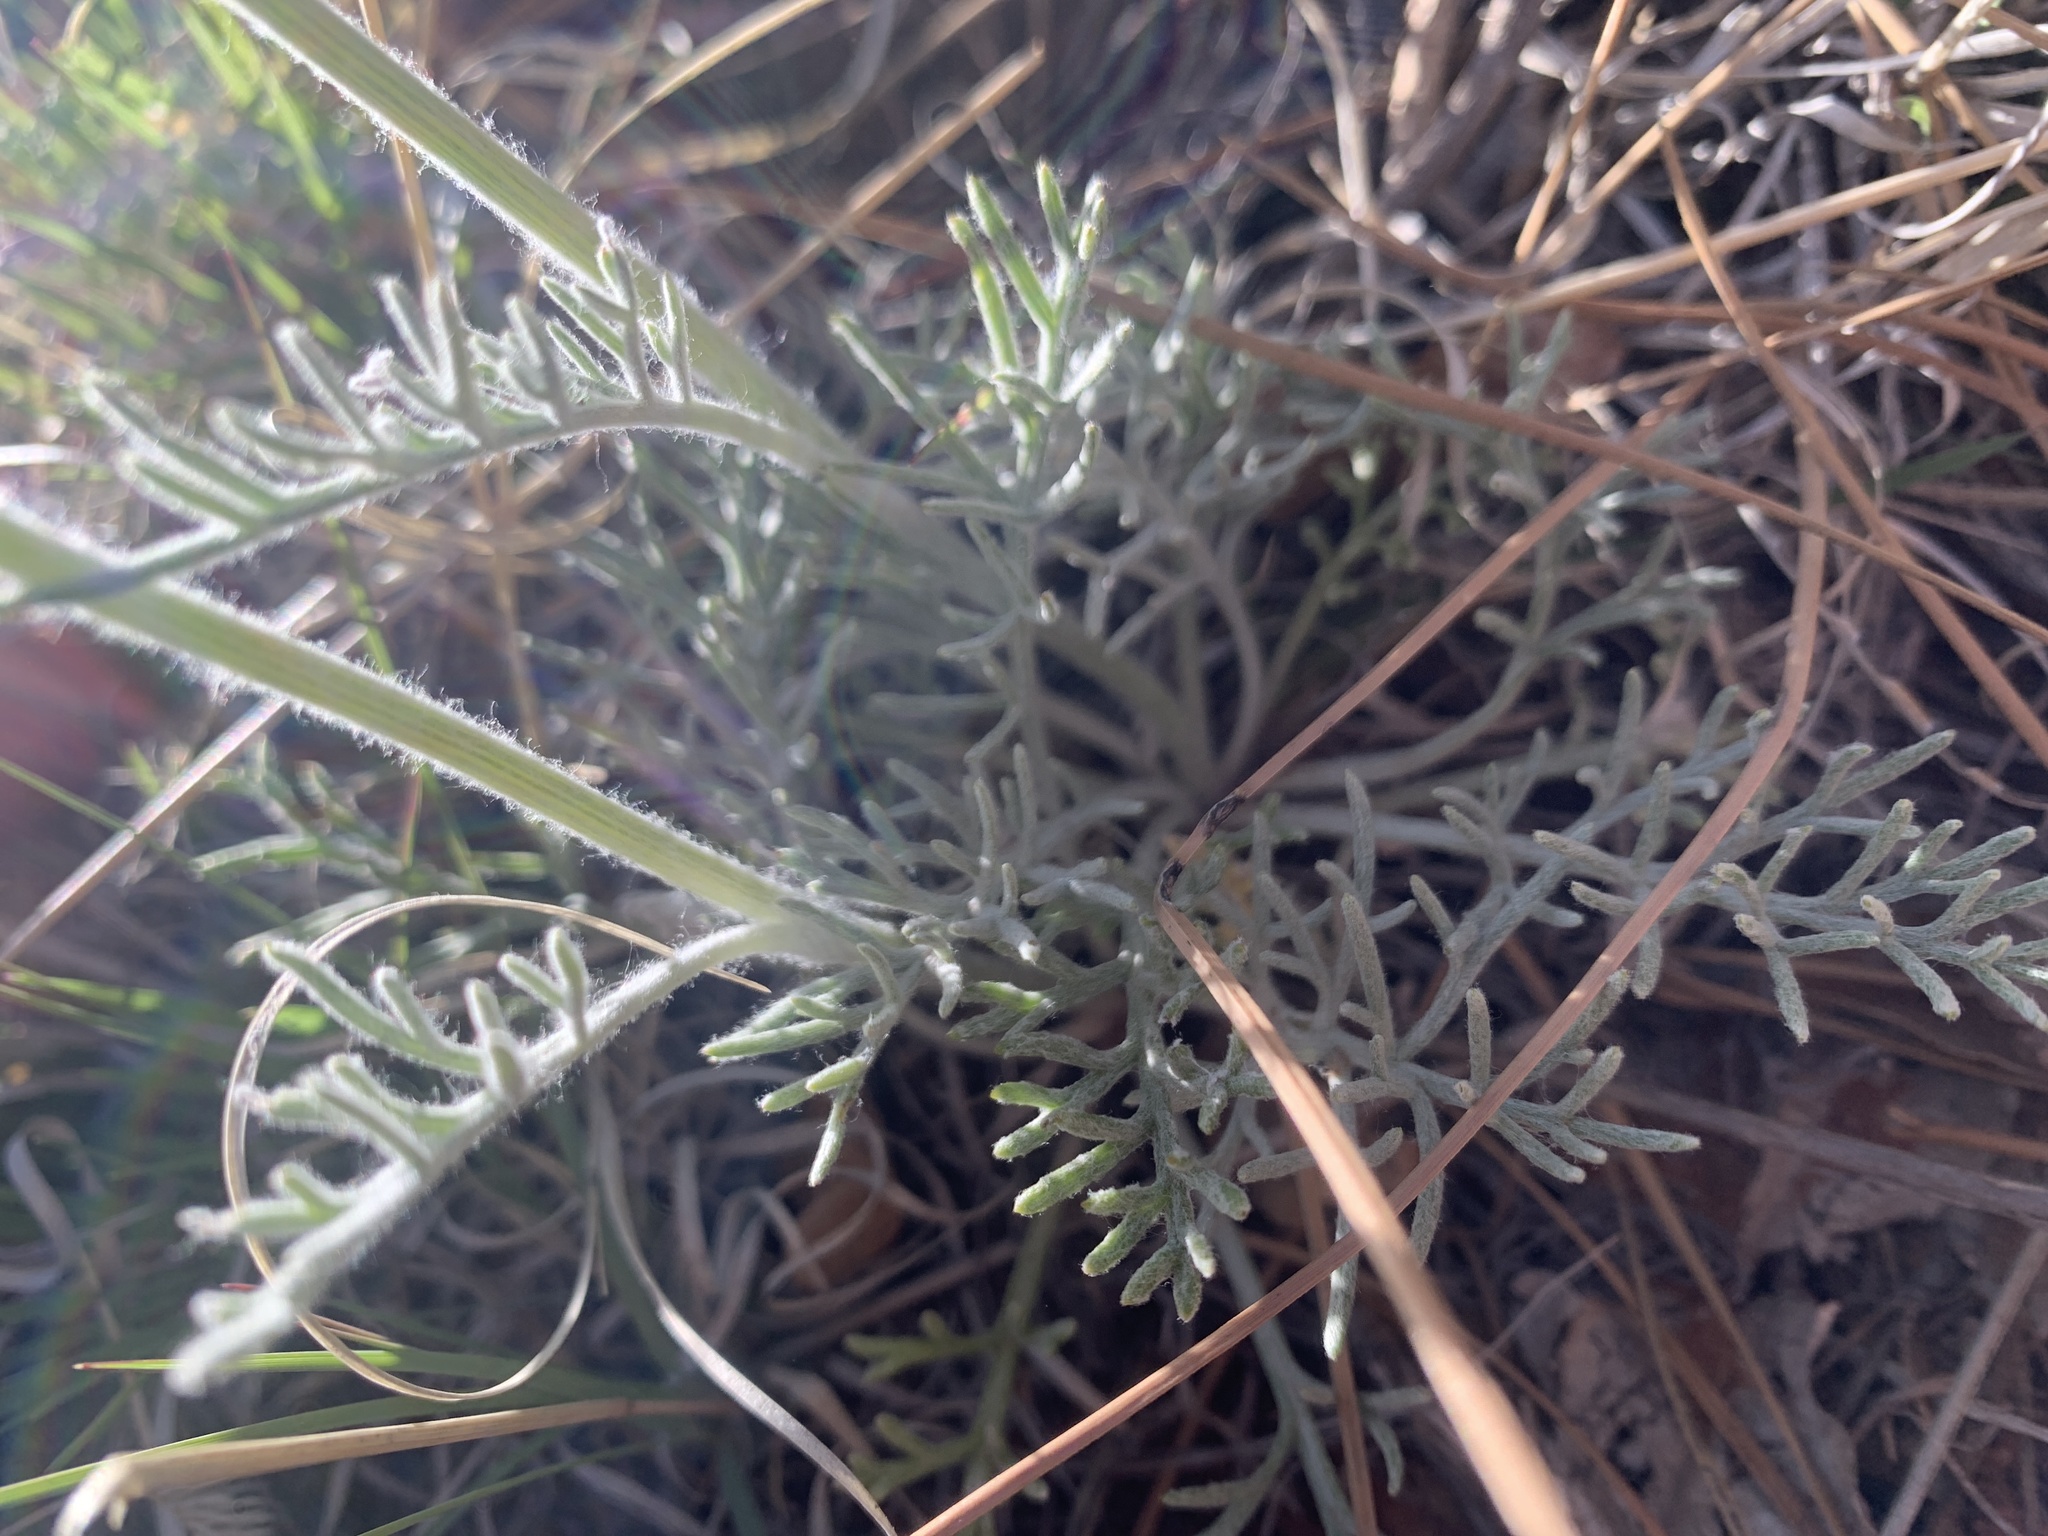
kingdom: Plantae
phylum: Tracheophyta
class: Magnoliopsida
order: Asterales
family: Asteraceae
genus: Hymenopappus
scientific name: Hymenopappus filifolius
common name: Columbia cutleaf
